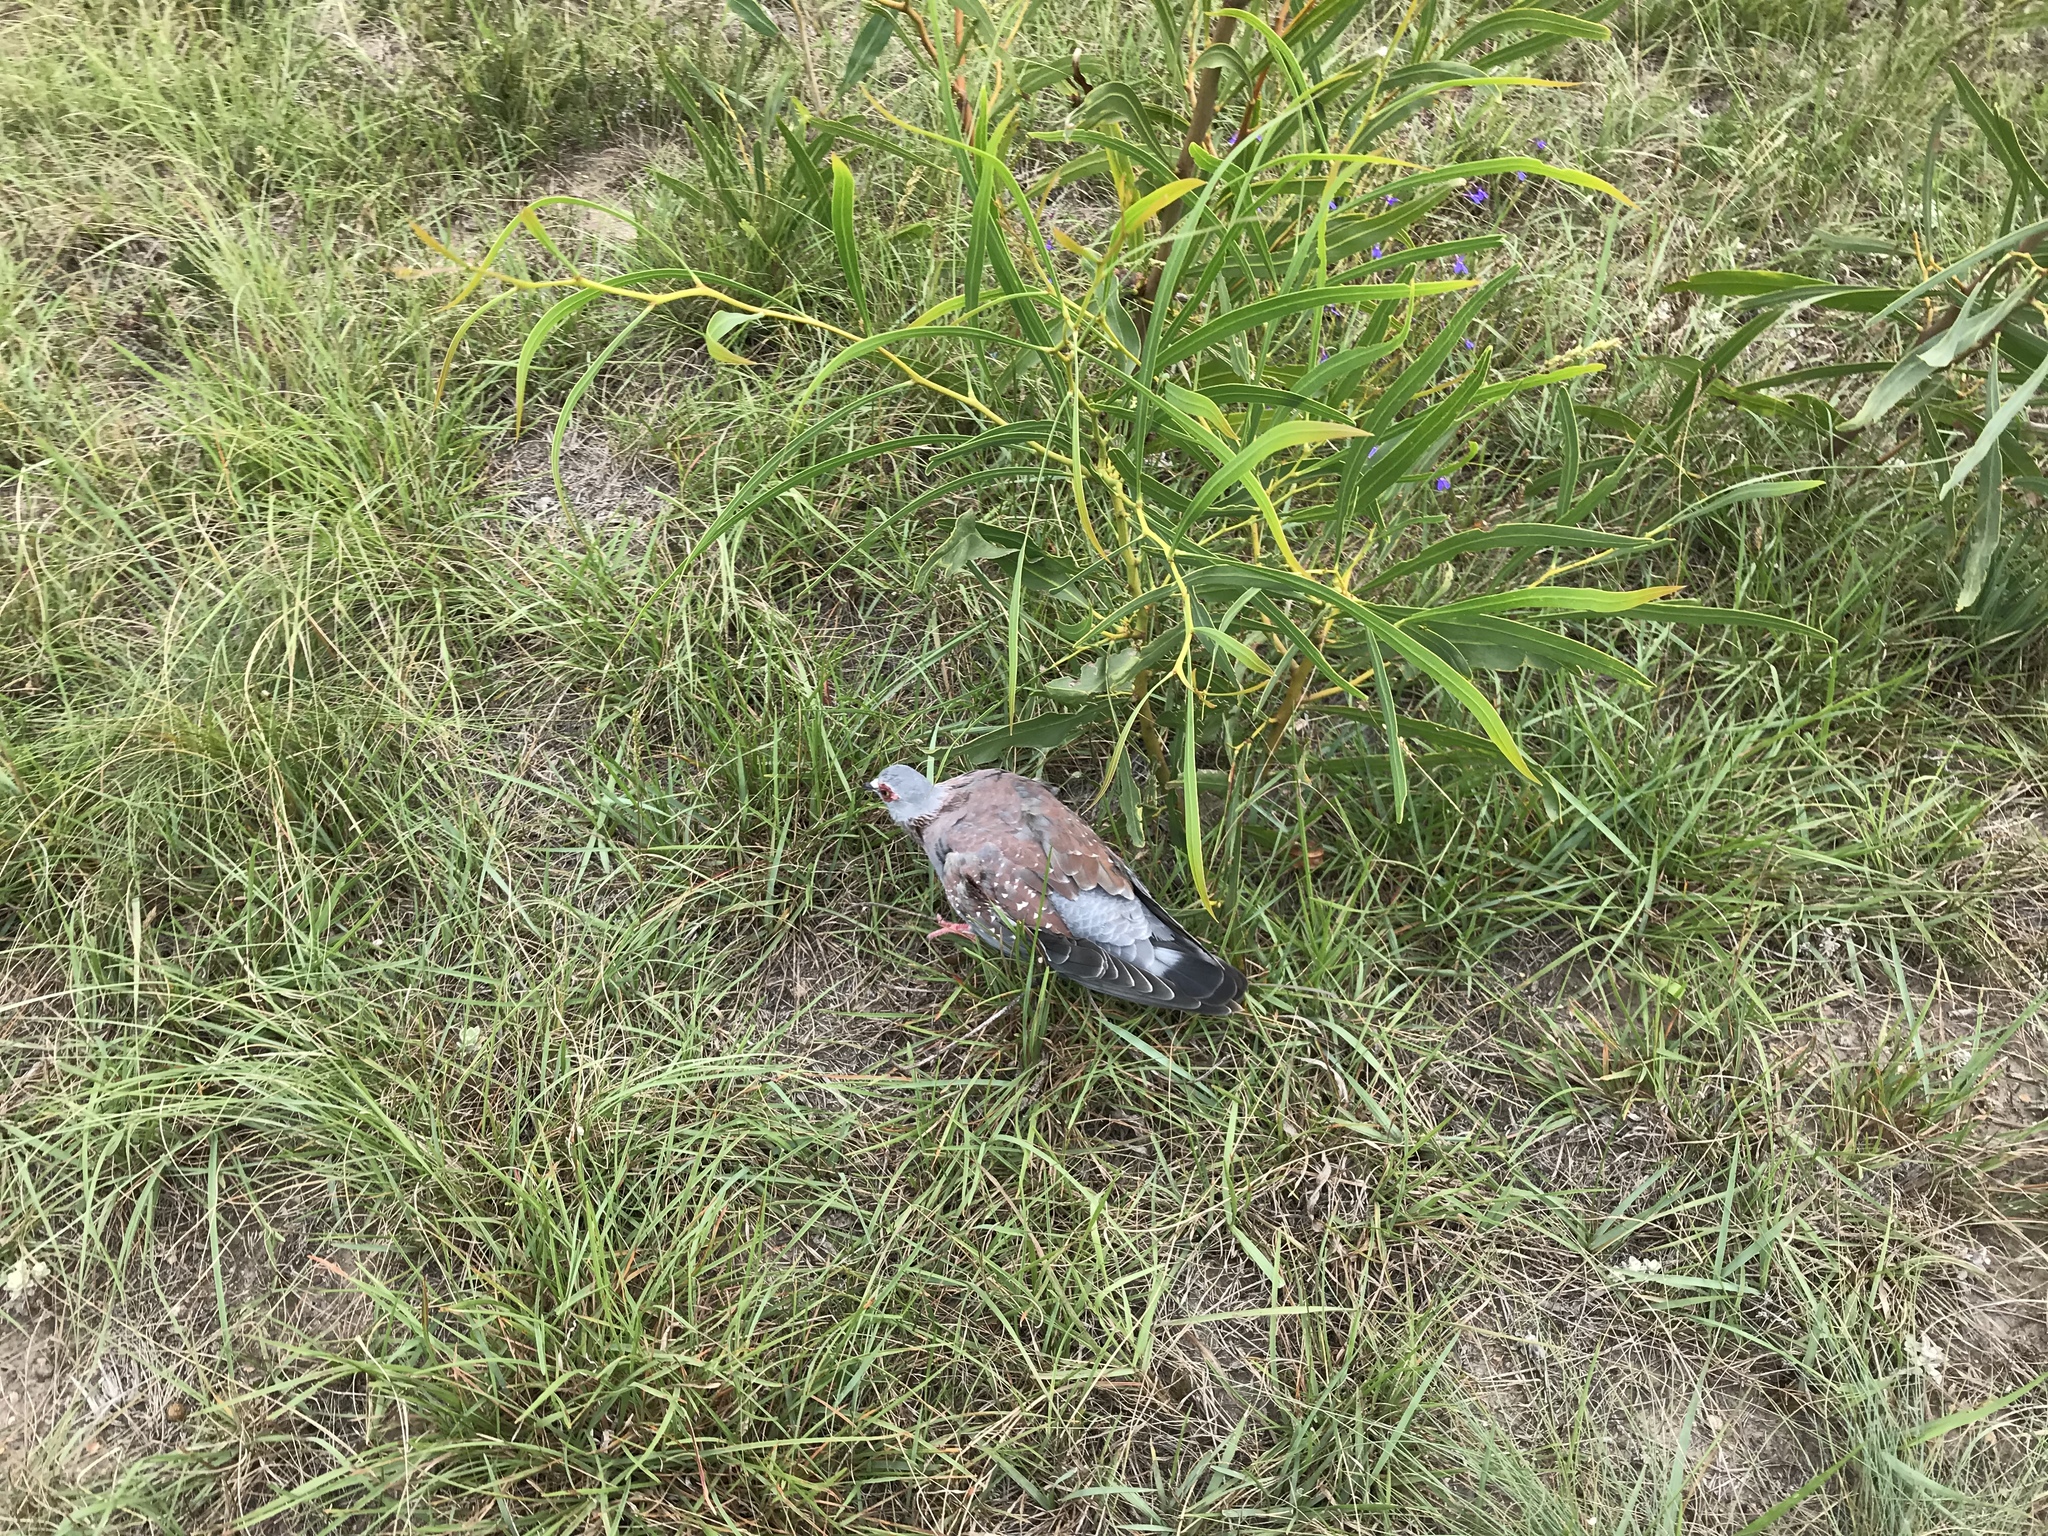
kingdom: Animalia
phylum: Chordata
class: Aves
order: Columbiformes
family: Columbidae
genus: Columba
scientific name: Columba guinea
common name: Speckled pigeon
